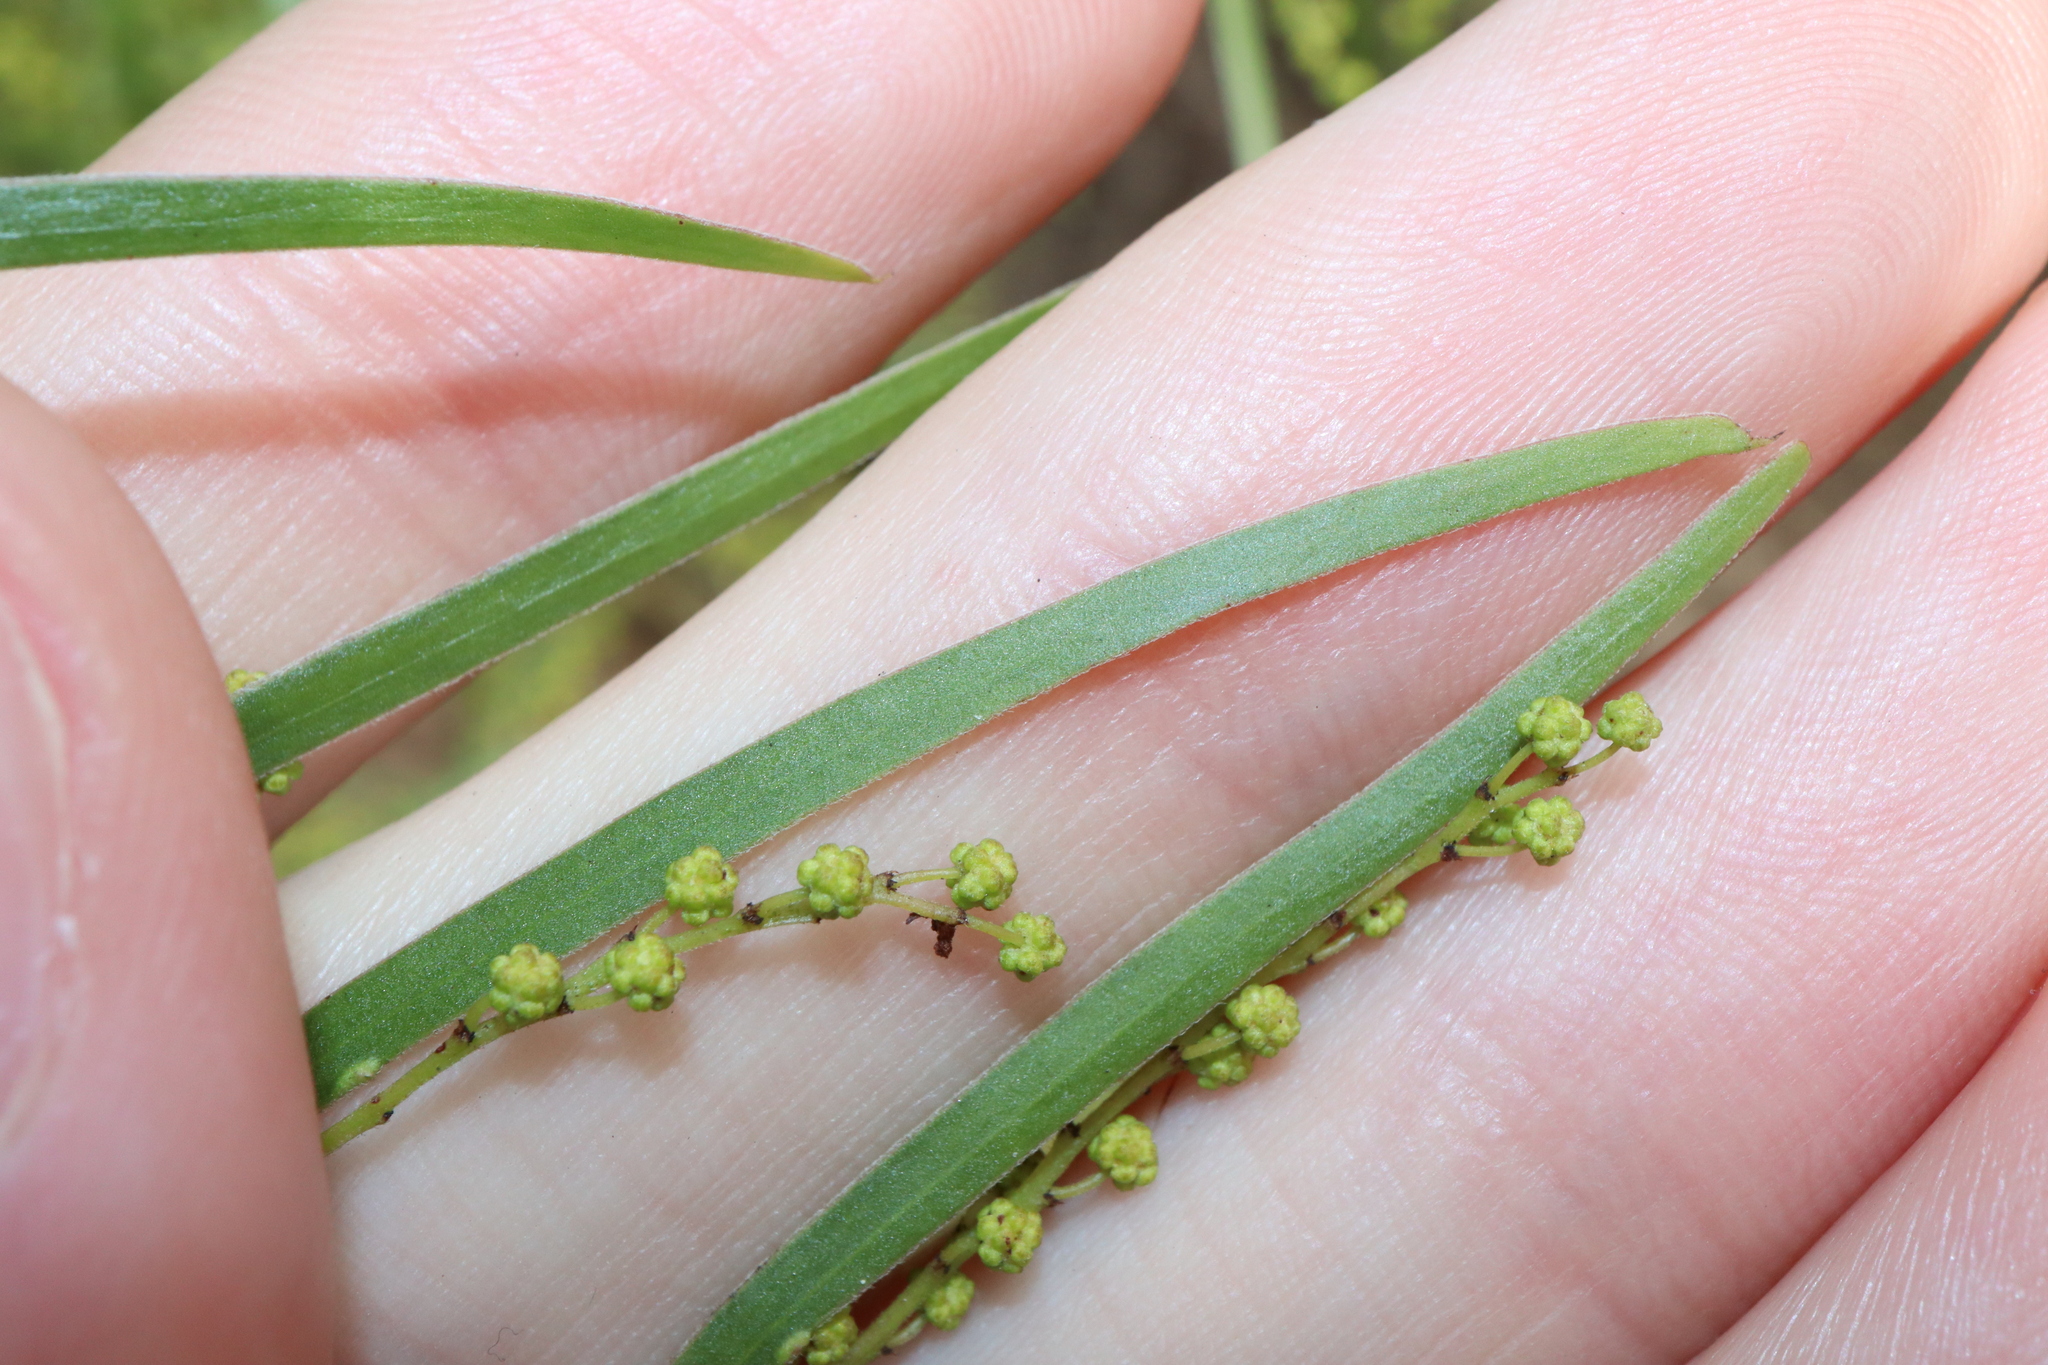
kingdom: Plantae
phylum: Tracheophyta
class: Magnoliopsida
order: Fabales
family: Fabaceae
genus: Acacia
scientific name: Acacia fimbriata
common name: Brisbane golden wattle
